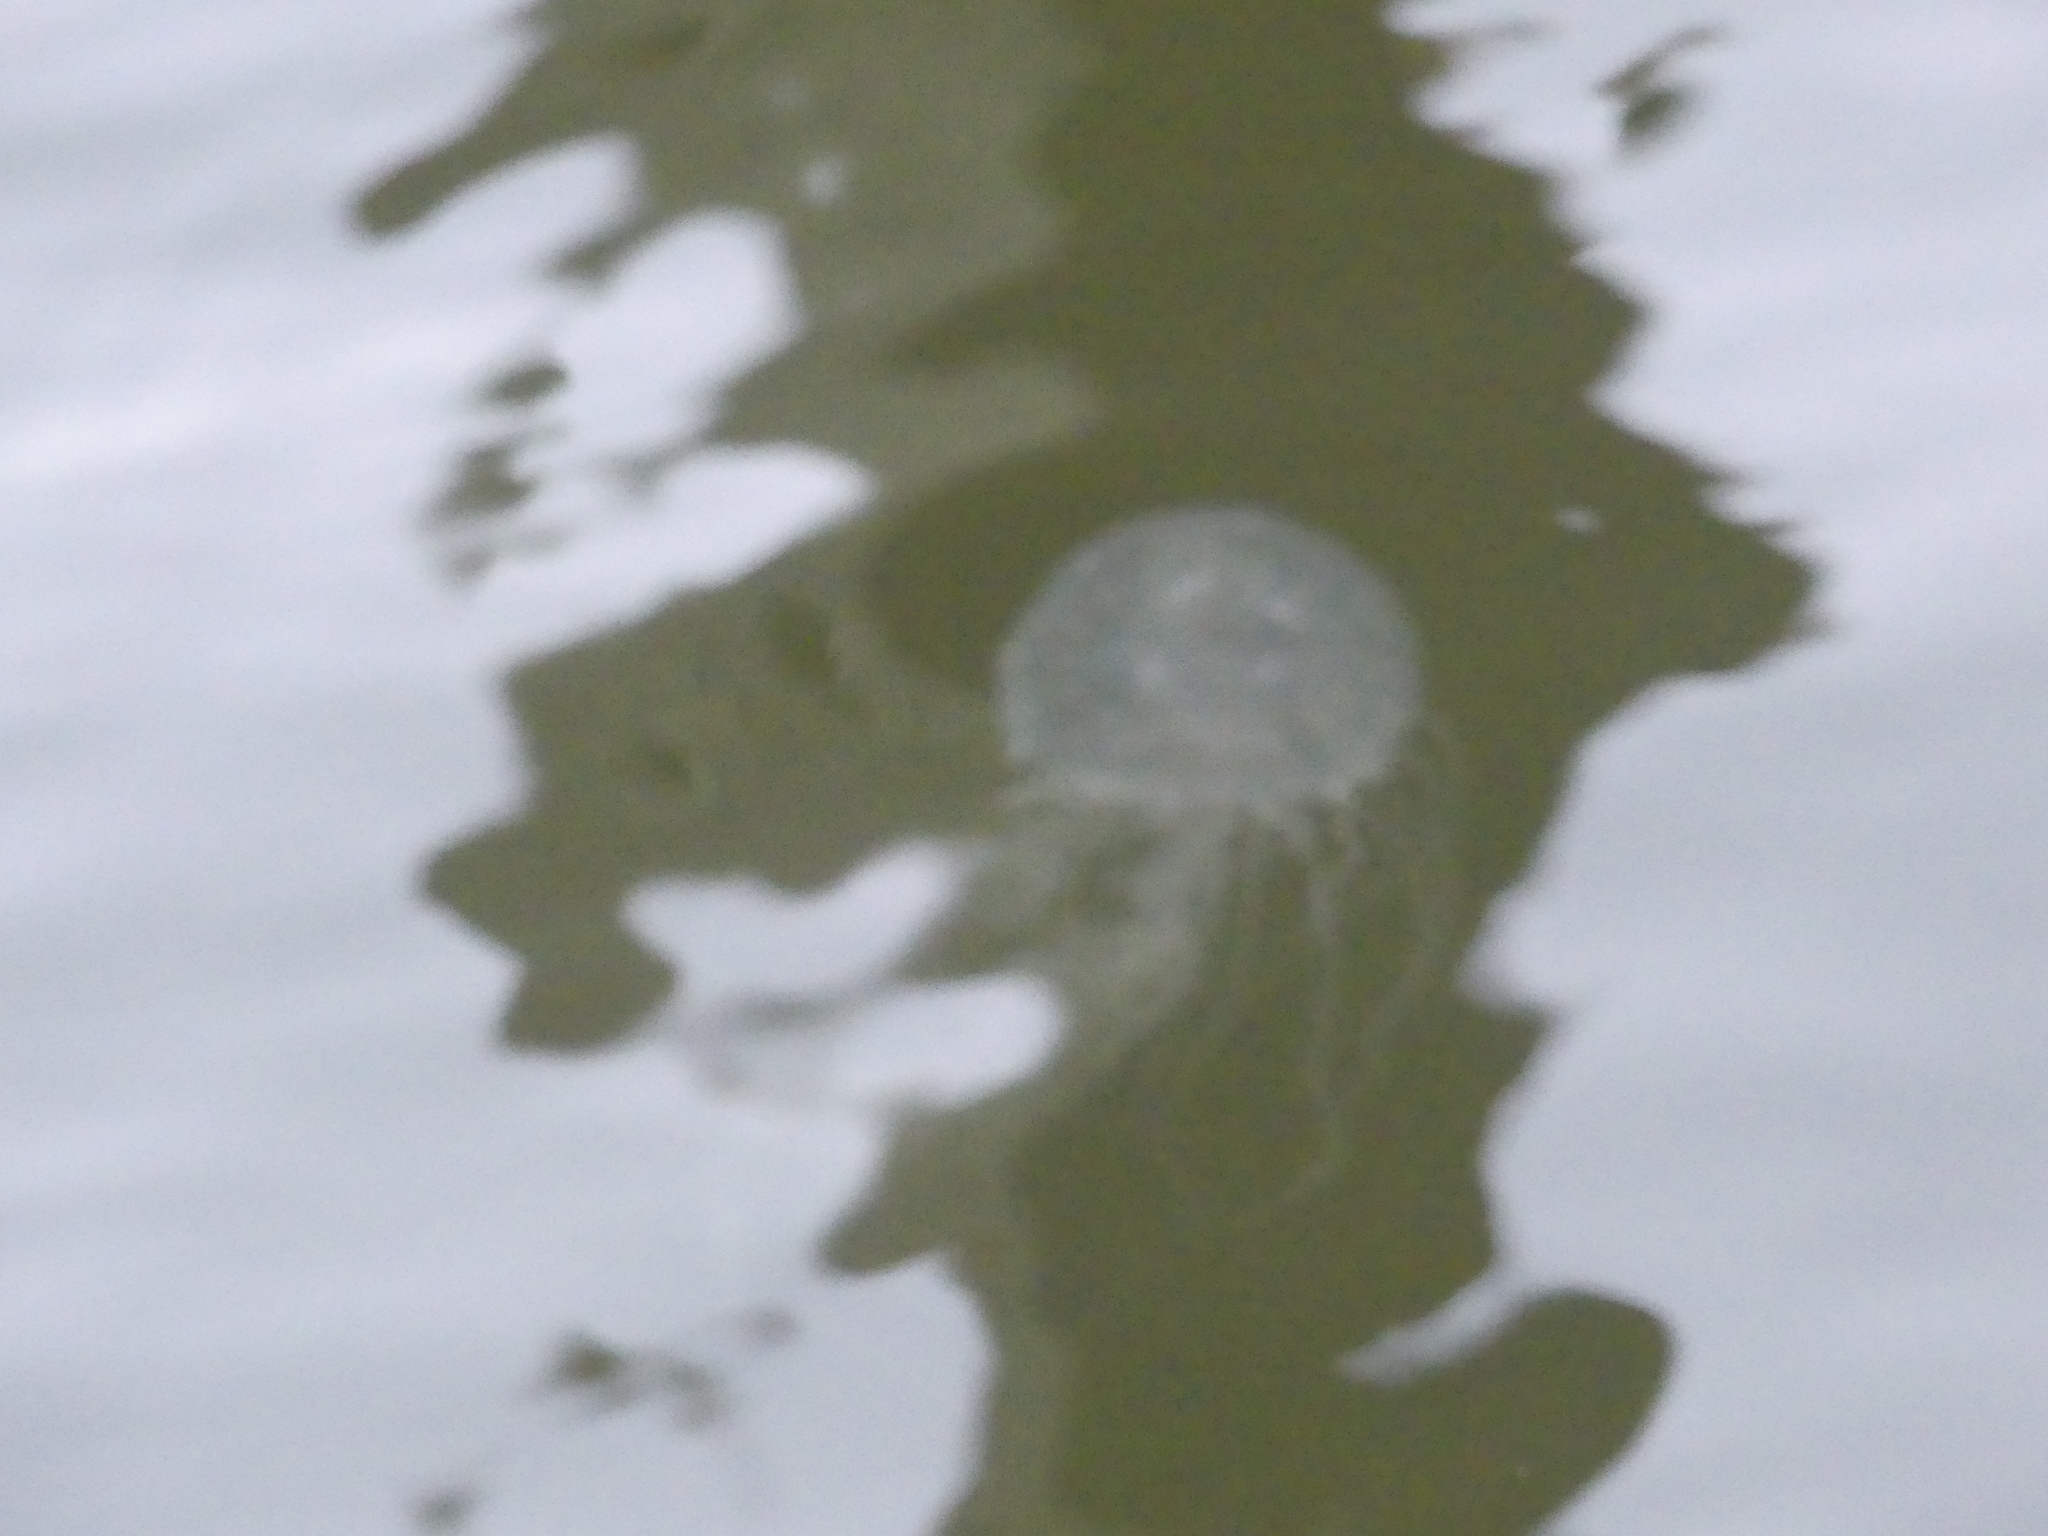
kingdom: Animalia
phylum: Cnidaria
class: Scyphozoa
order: Semaeostomeae
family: Pelagiidae
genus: Chrysaora
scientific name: Chrysaora chesapeakei
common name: Bay nettle
